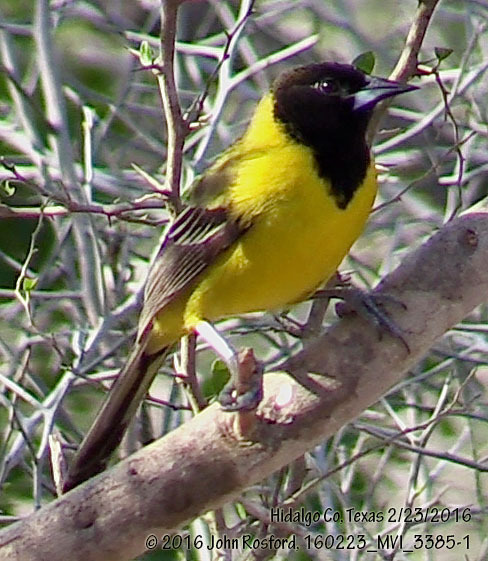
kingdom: Animalia
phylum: Chordata
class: Aves
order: Passeriformes
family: Icteridae
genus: Icterus
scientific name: Icterus graduacauda
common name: Audubon's oriole
